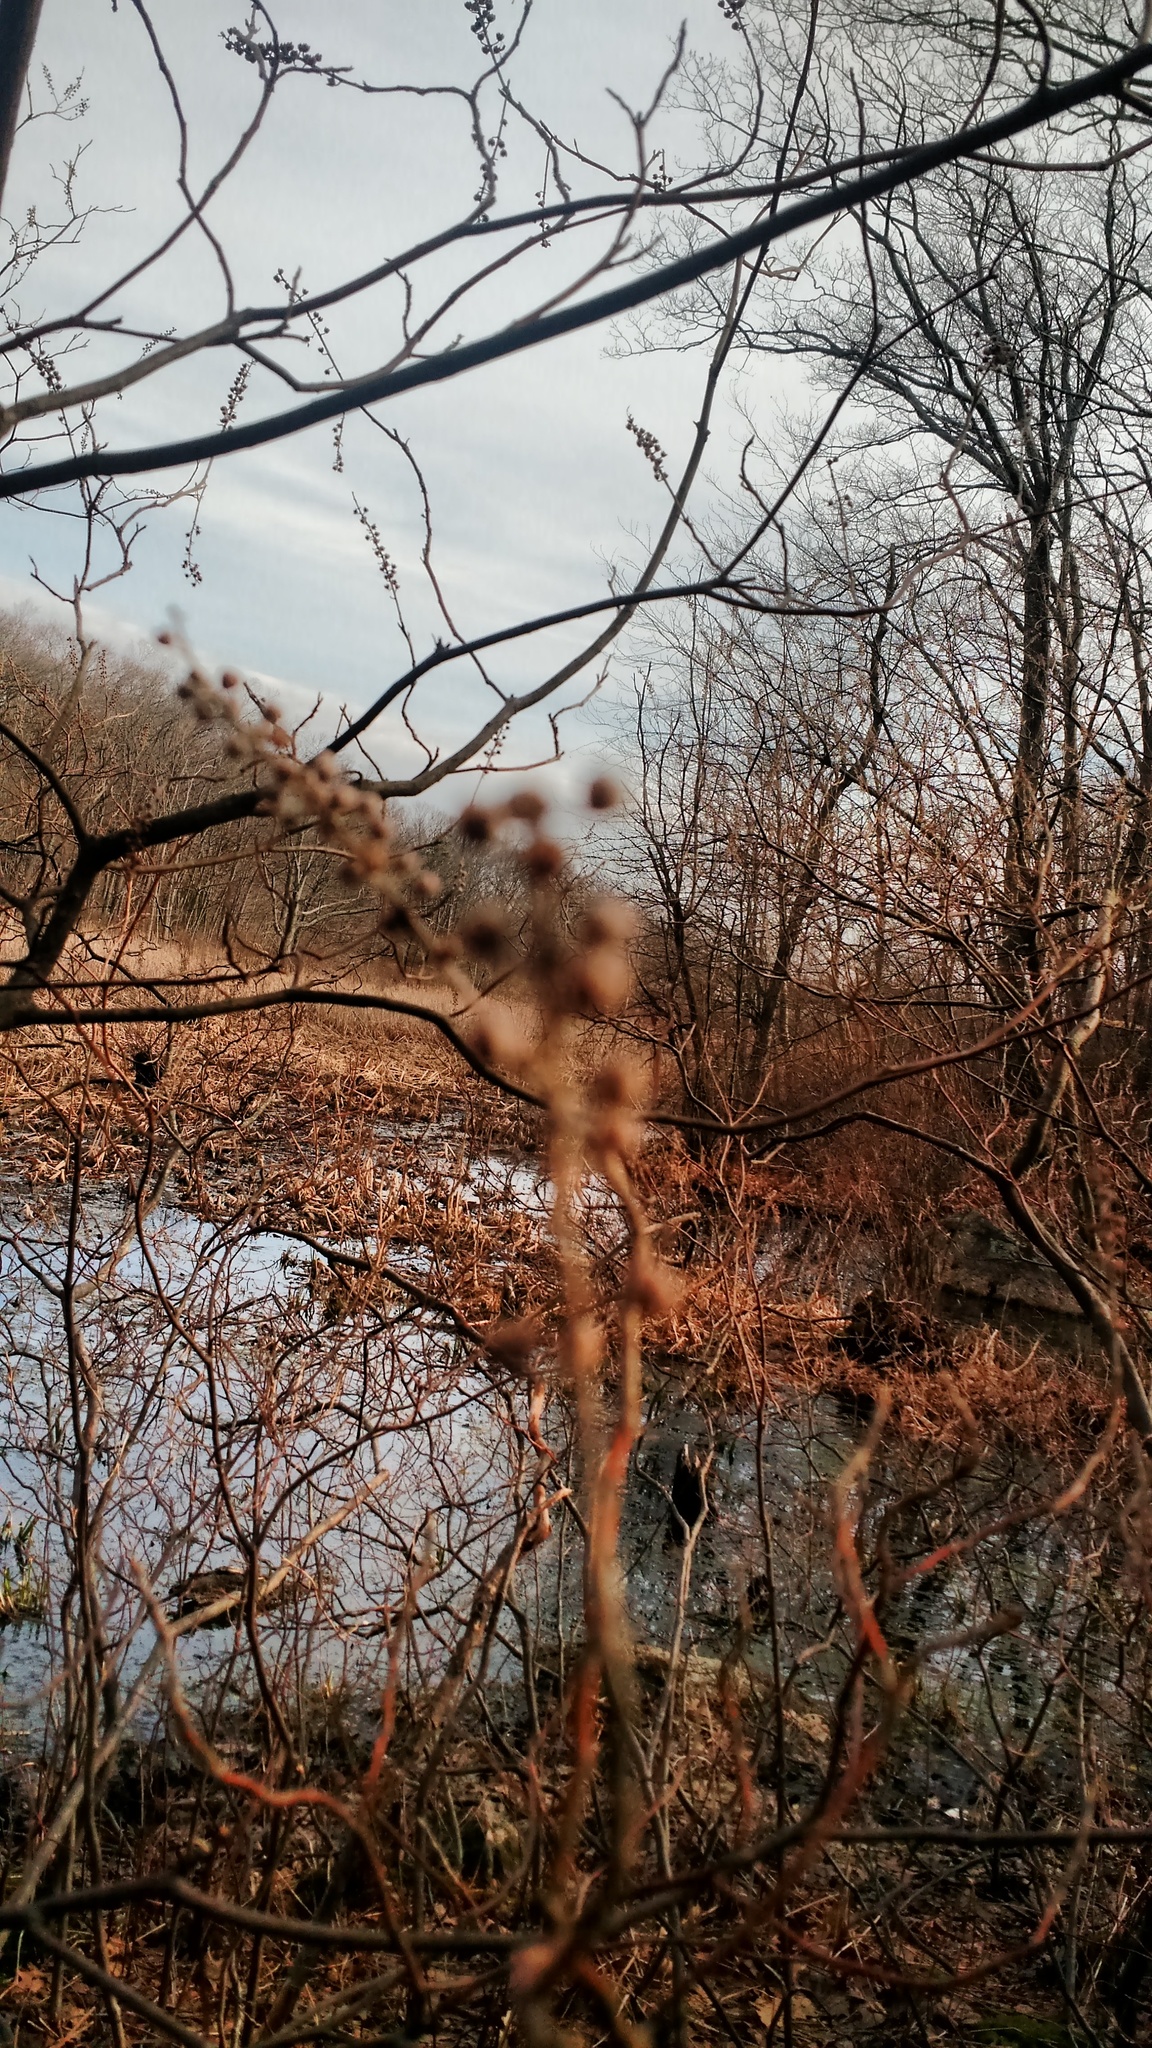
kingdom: Plantae
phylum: Tracheophyta
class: Magnoliopsida
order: Ericales
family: Clethraceae
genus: Clethra
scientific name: Clethra alnifolia
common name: Sweet pepperbush
